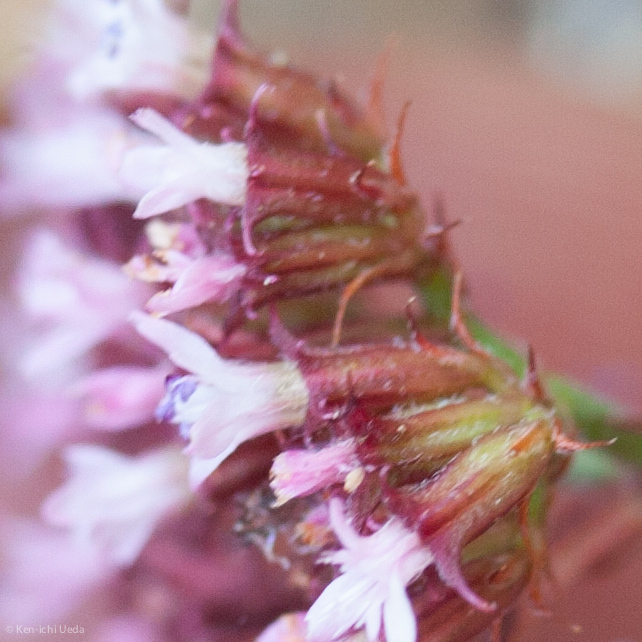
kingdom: Plantae
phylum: Tracheophyta
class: Magnoliopsida
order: Caryophyllales
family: Polygonaceae
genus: Chorizanthe
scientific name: Chorizanthe staticoides
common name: Turkish rugging
